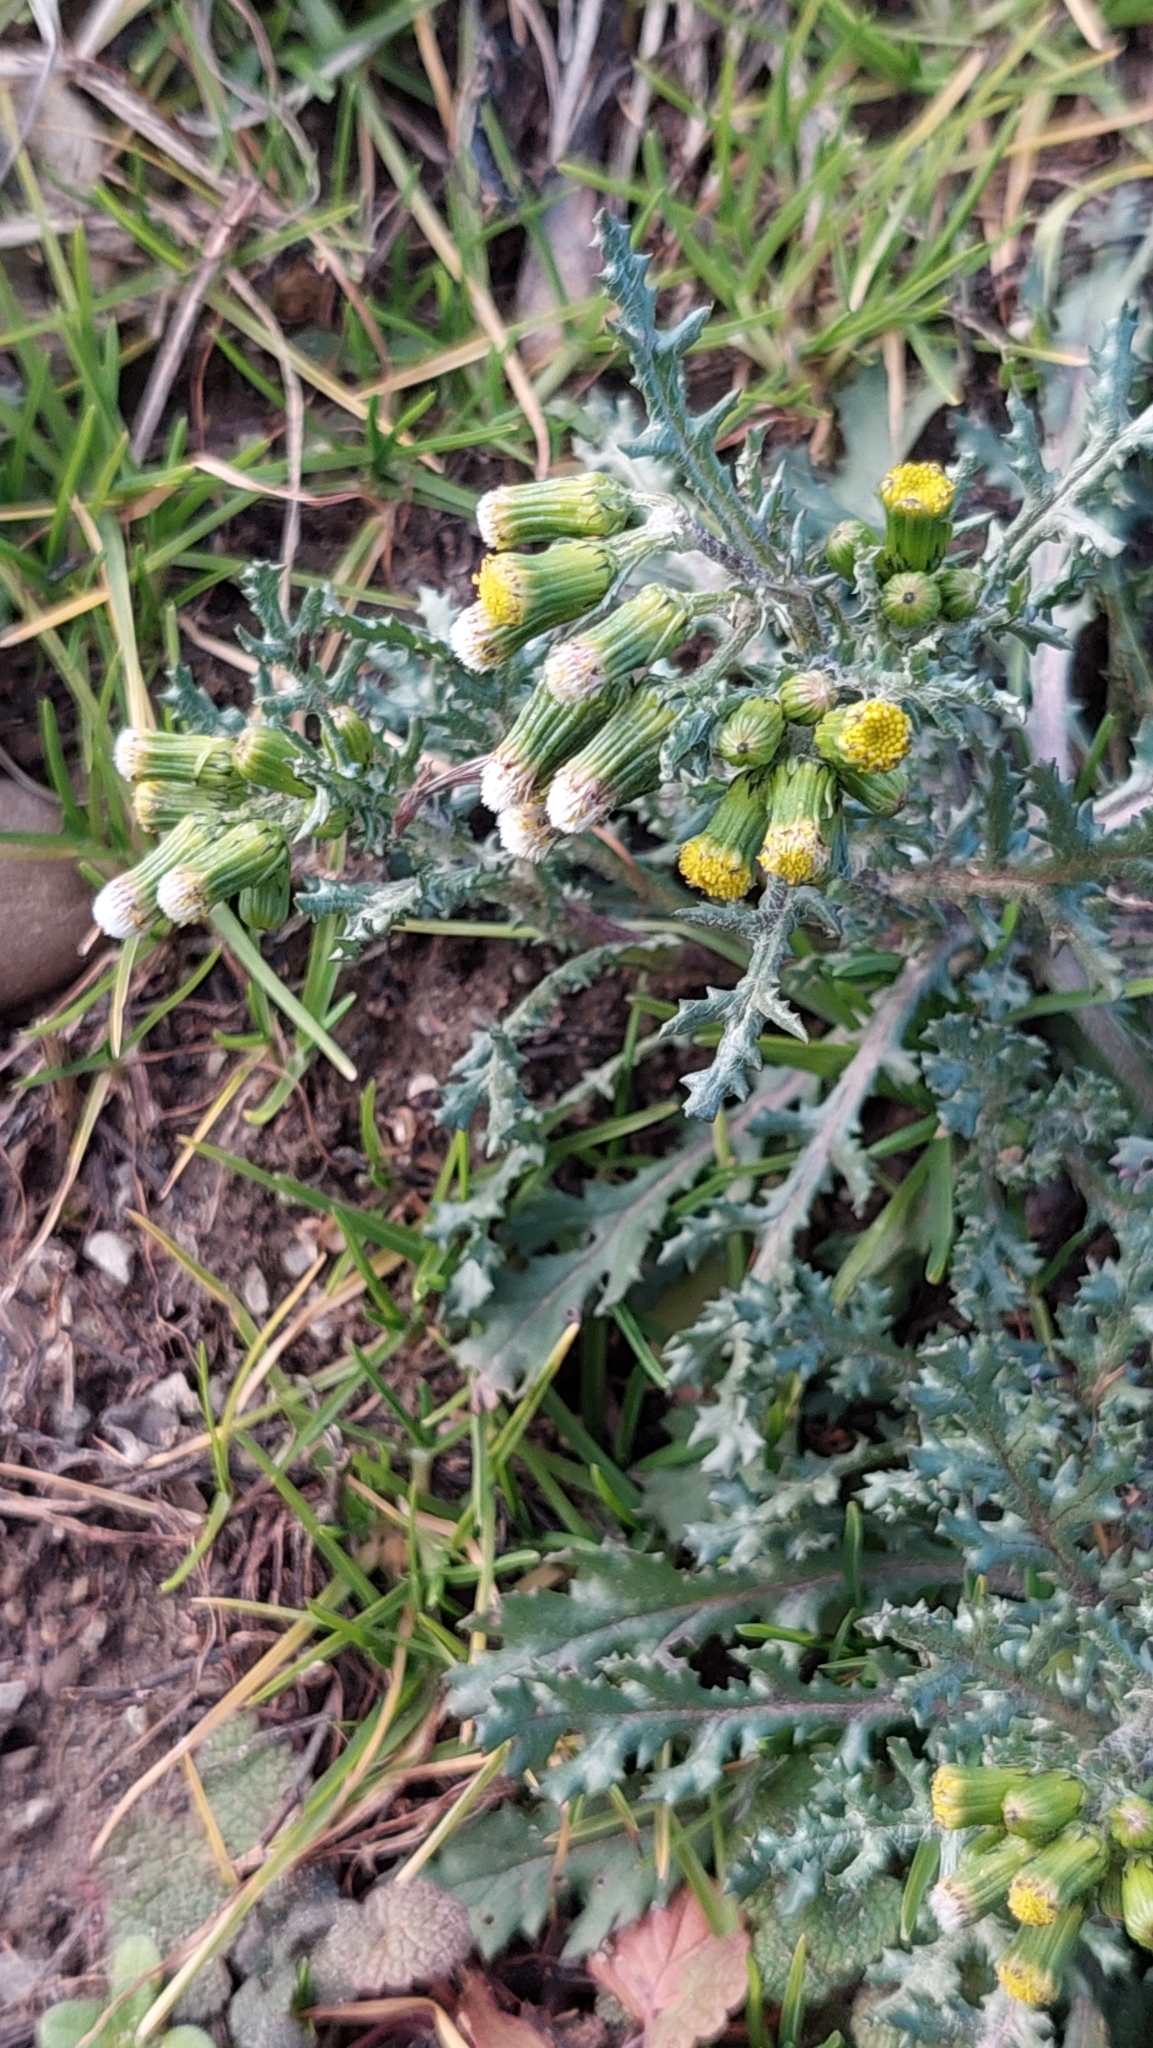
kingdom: Plantae
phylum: Tracheophyta
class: Magnoliopsida
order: Asterales
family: Asteraceae
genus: Senecio
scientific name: Senecio vulgaris
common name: Old-man-in-the-spring
